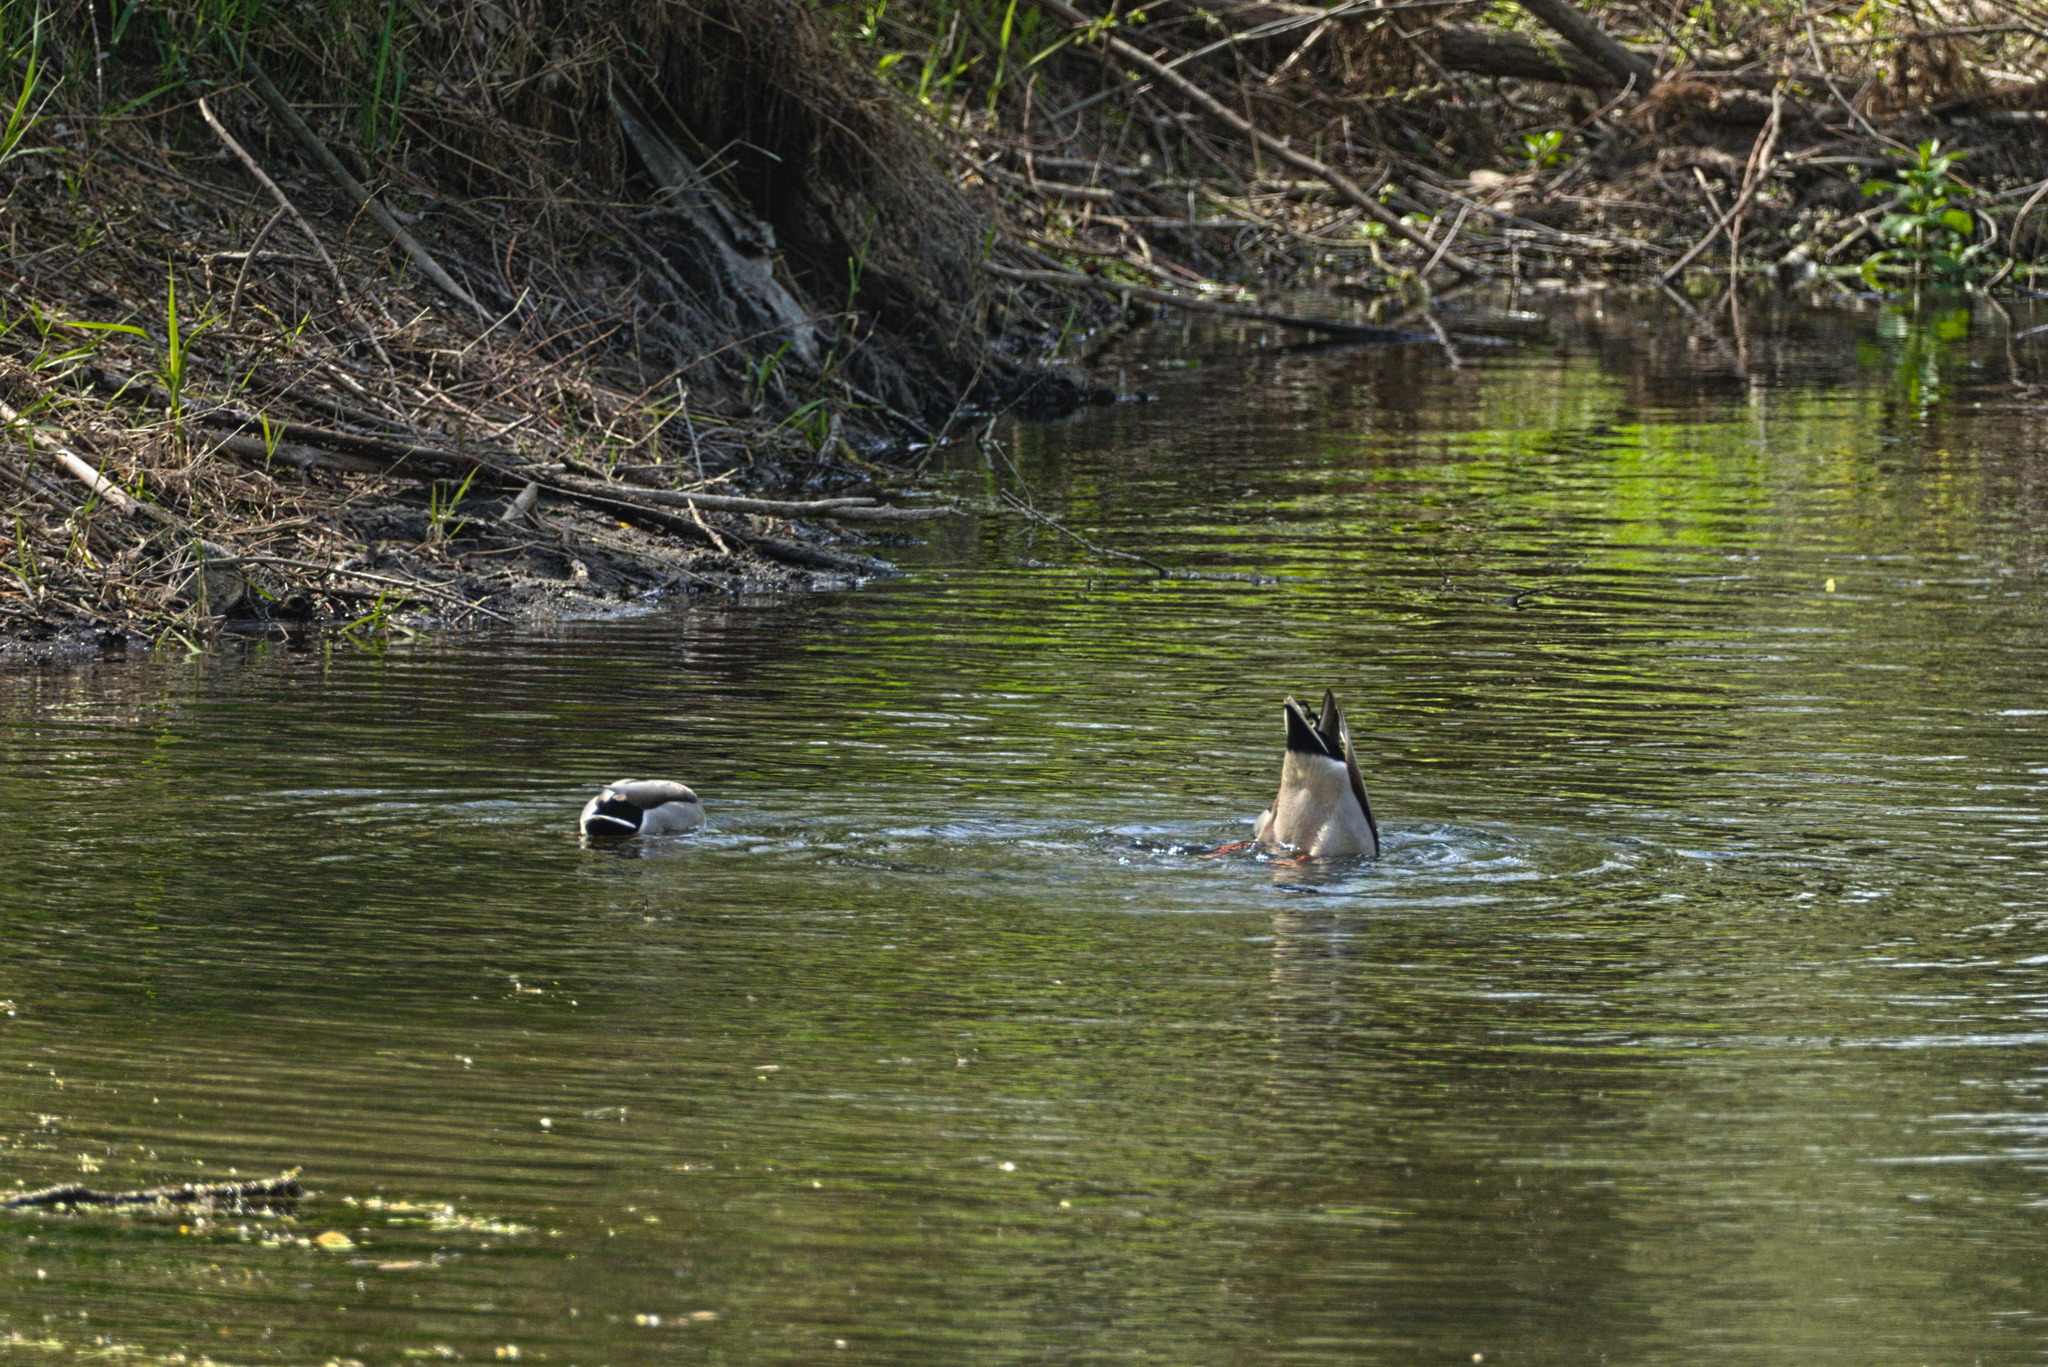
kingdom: Animalia
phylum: Chordata
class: Aves
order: Anseriformes
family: Anatidae
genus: Anas
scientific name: Anas platyrhynchos
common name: Mallard
